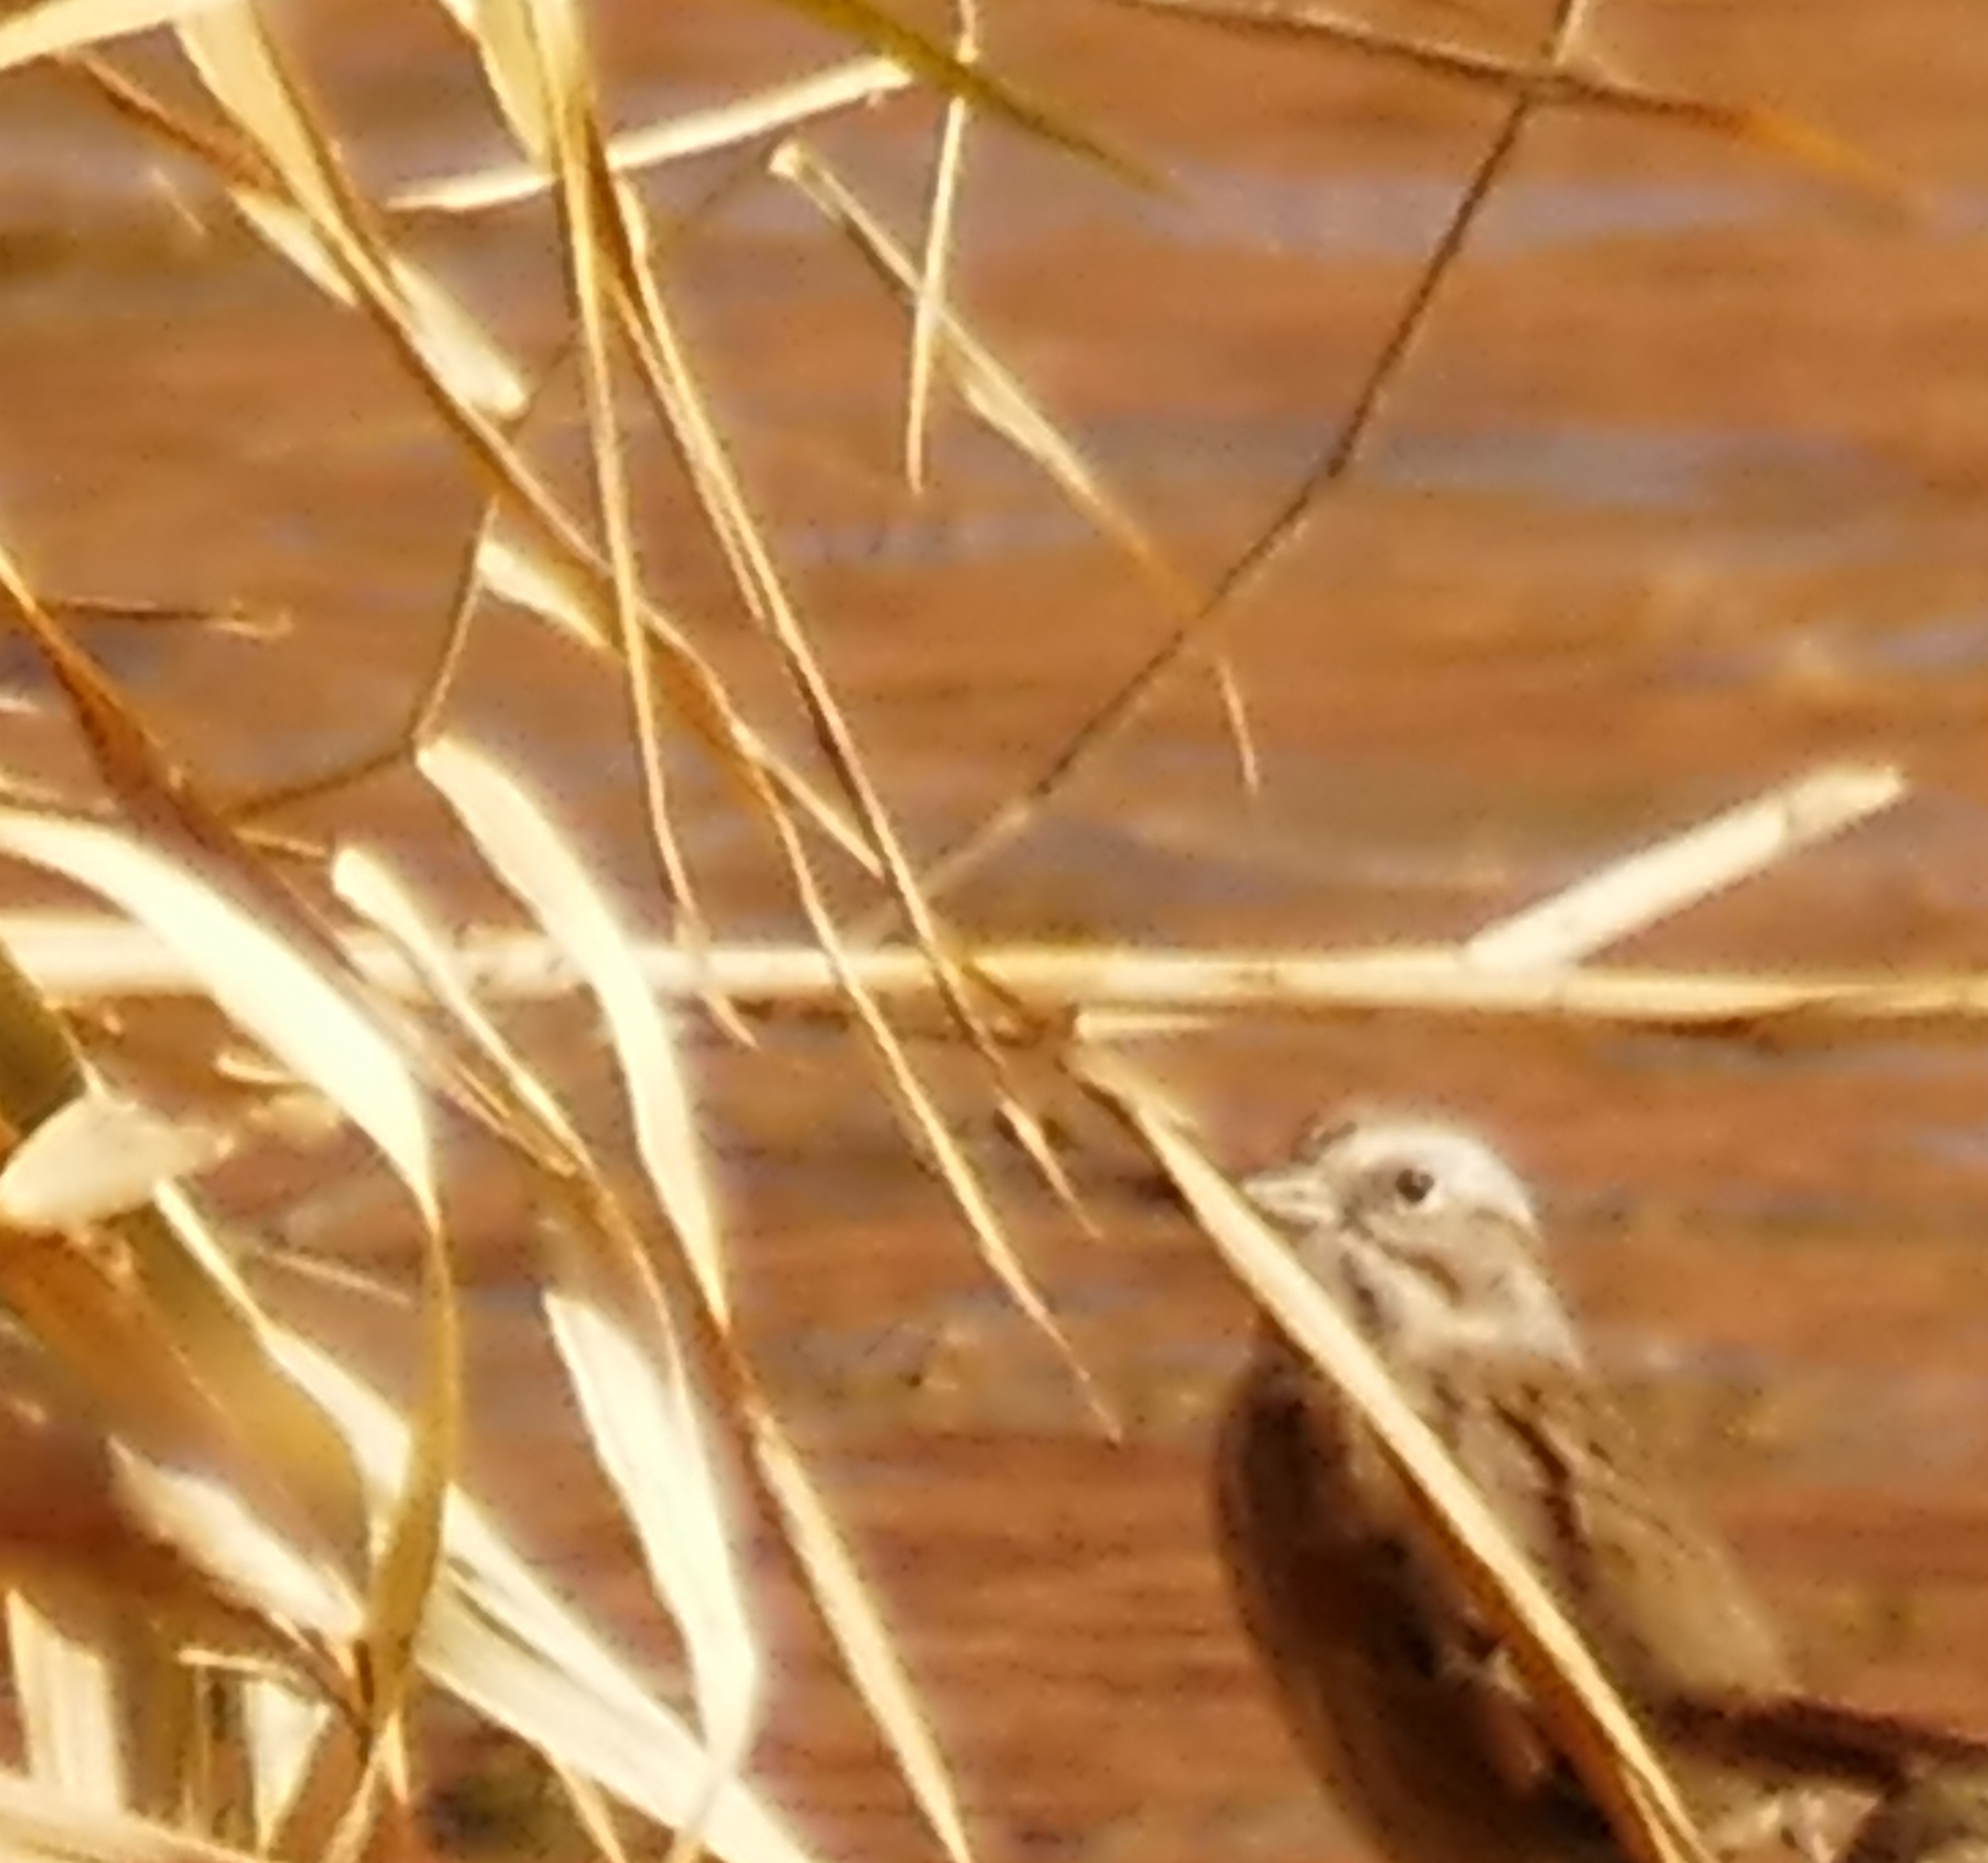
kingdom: Animalia
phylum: Chordata
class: Aves
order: Passeriformes
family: Passerellidae
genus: Melospiza
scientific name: Melospiza melodia
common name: Song sparrow
